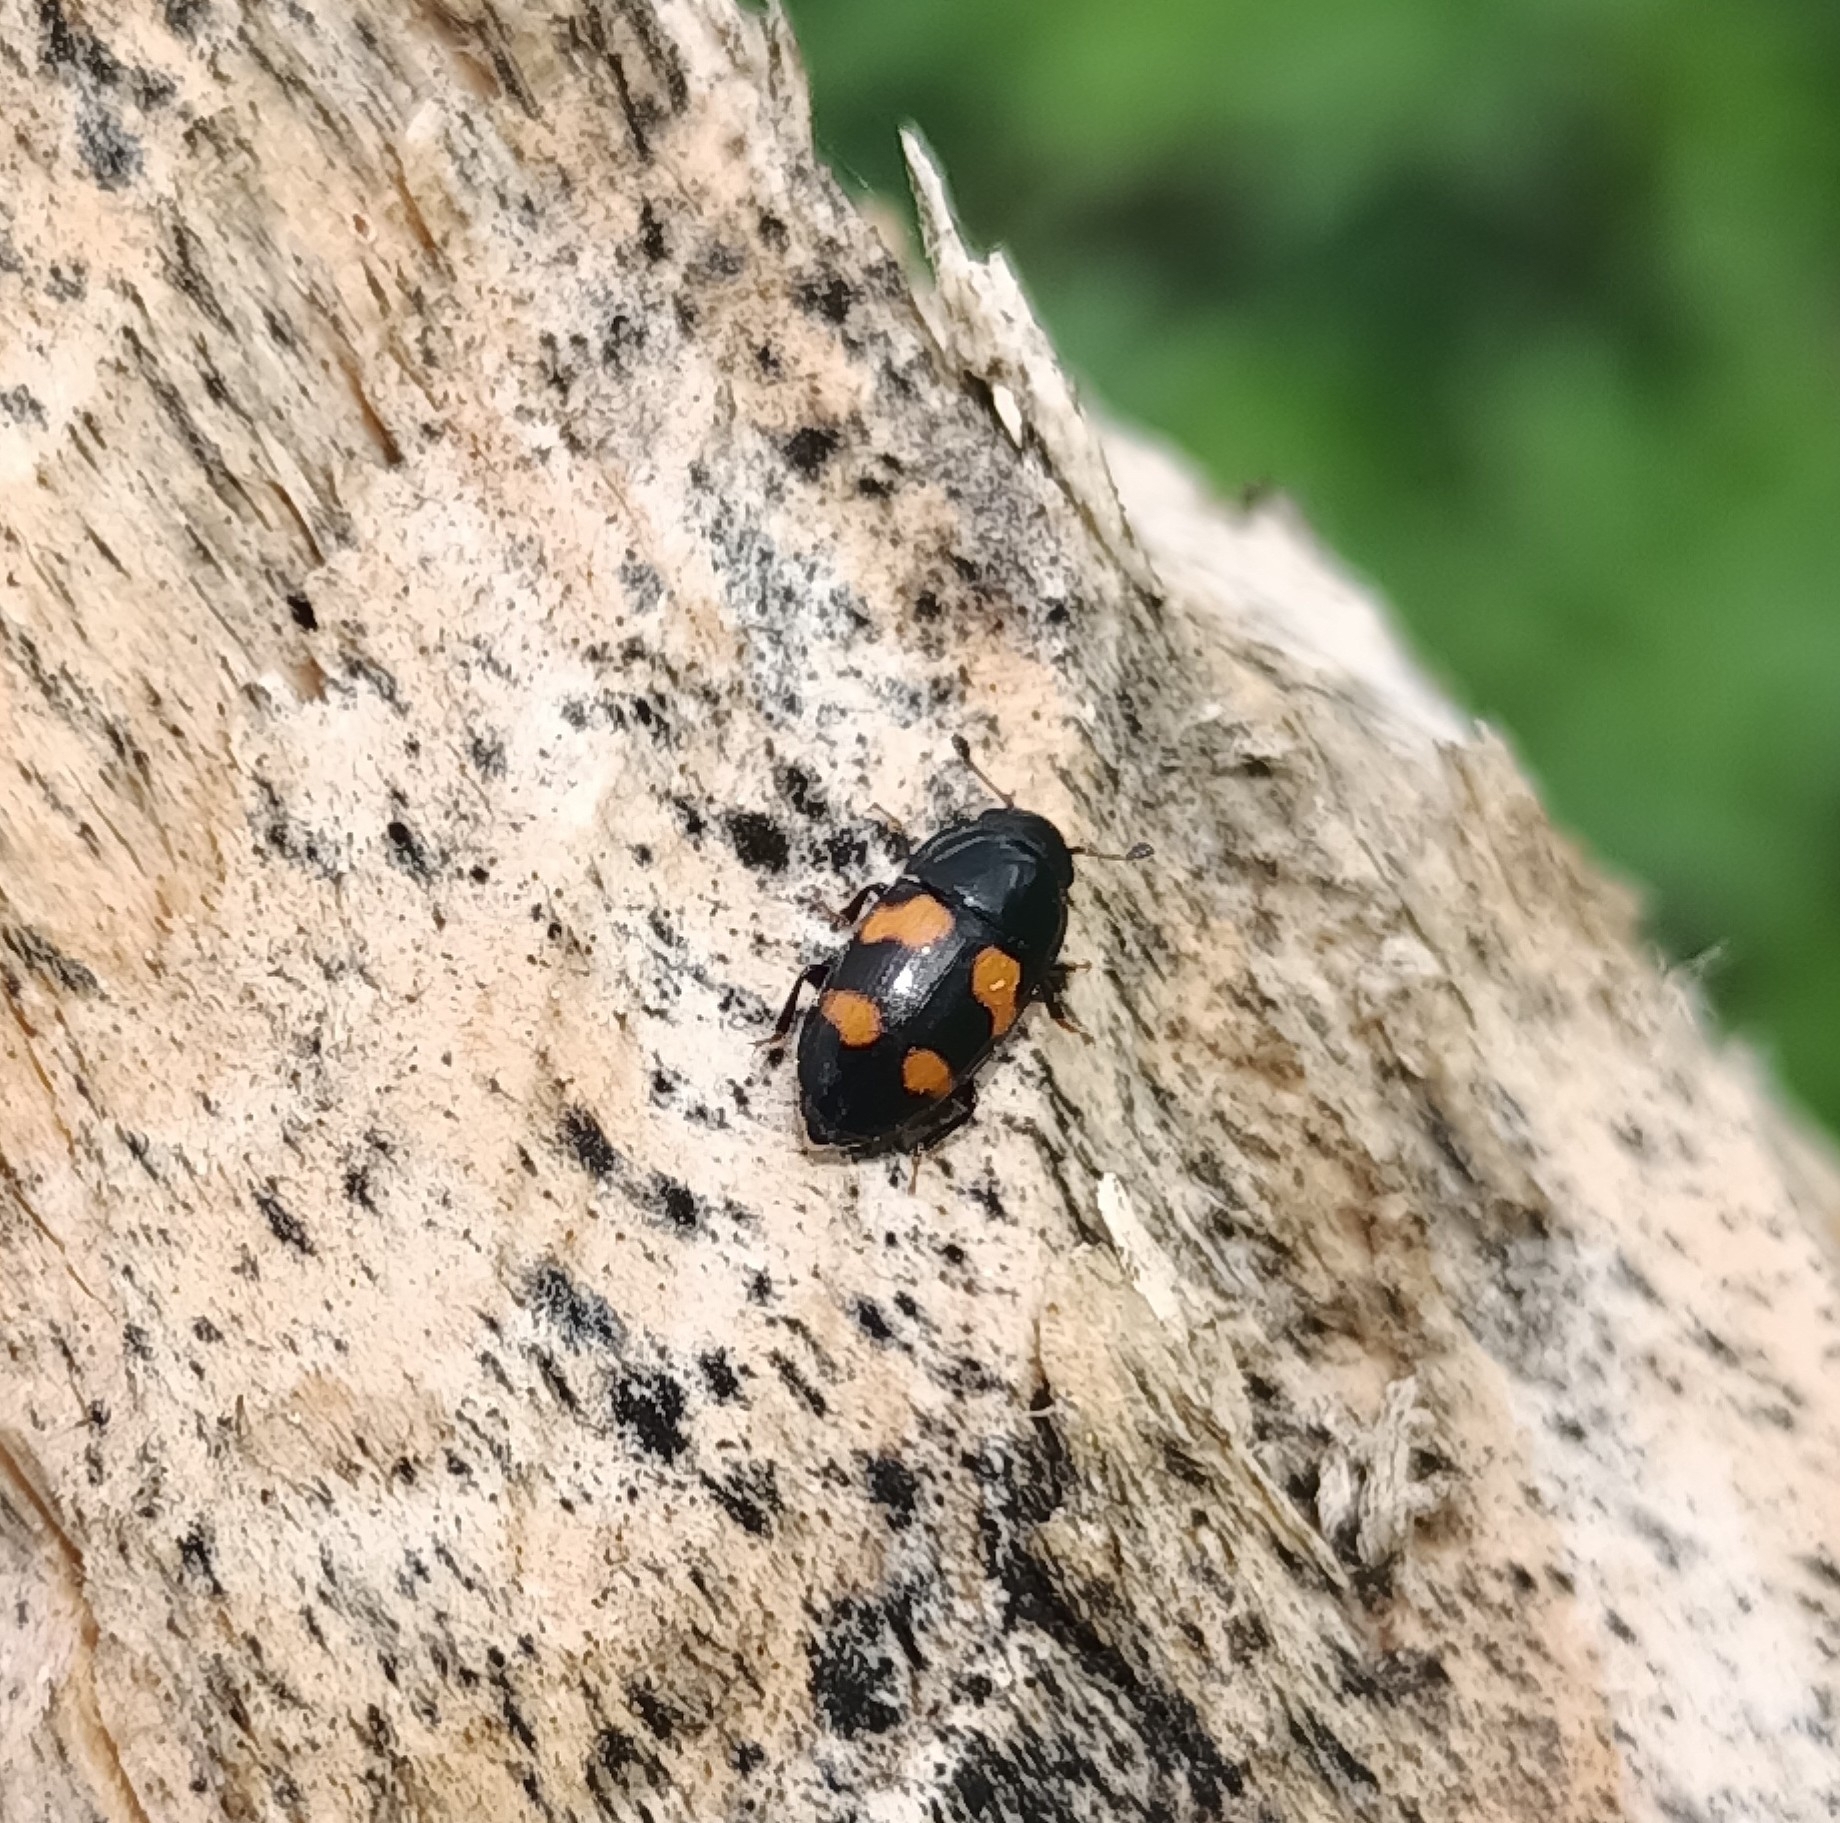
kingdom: Animalia
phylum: Arthropoda
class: Insecta
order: Coleoptera
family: Nitidulidae
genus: Glischrochilus
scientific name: Glischrochilus grandis
